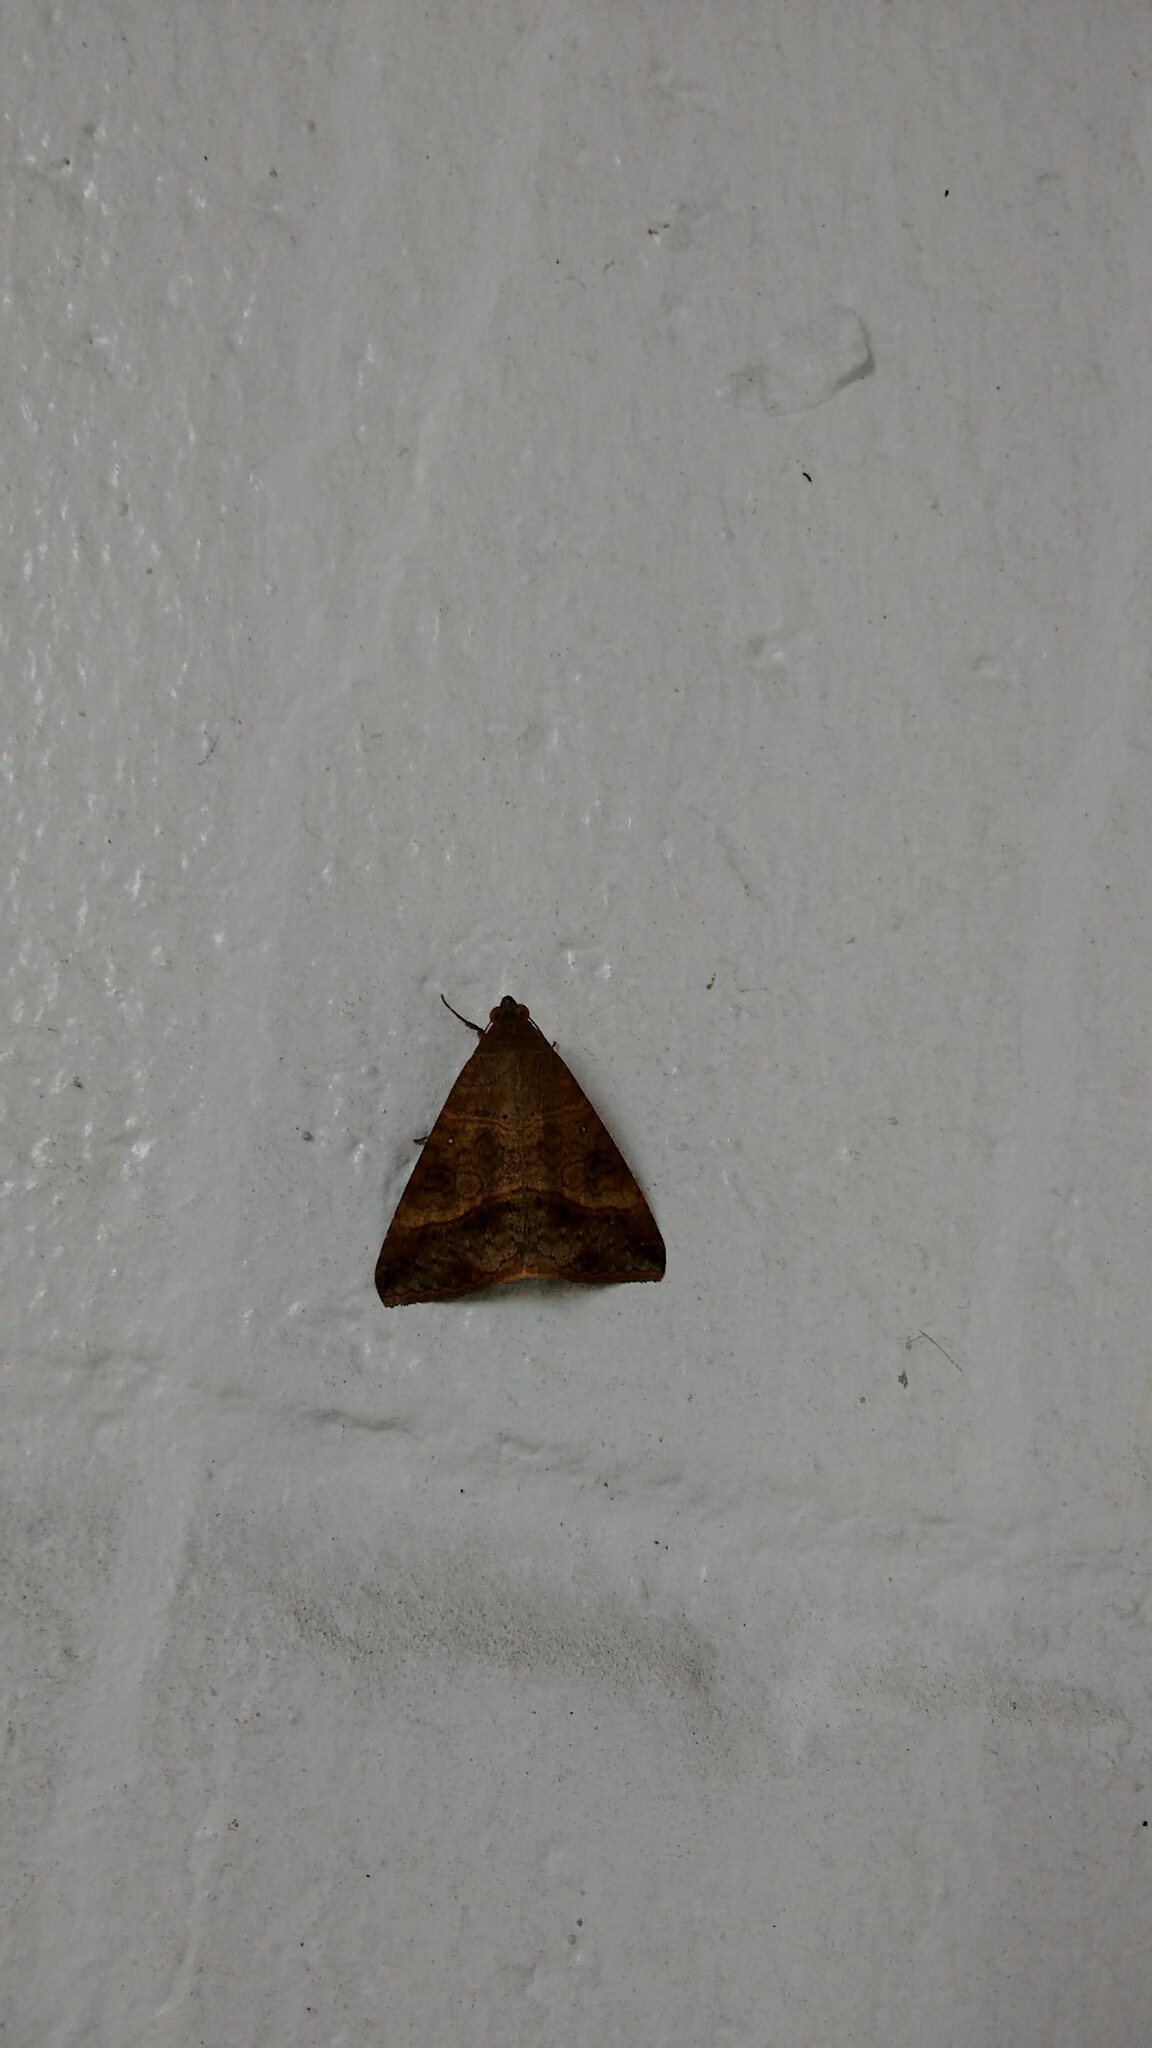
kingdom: Animalia
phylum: Arthropoda
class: Insecta
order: Lepidoptera
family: Erebidae
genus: Mocis
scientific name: Mocis latipes
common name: Striped grass looper
